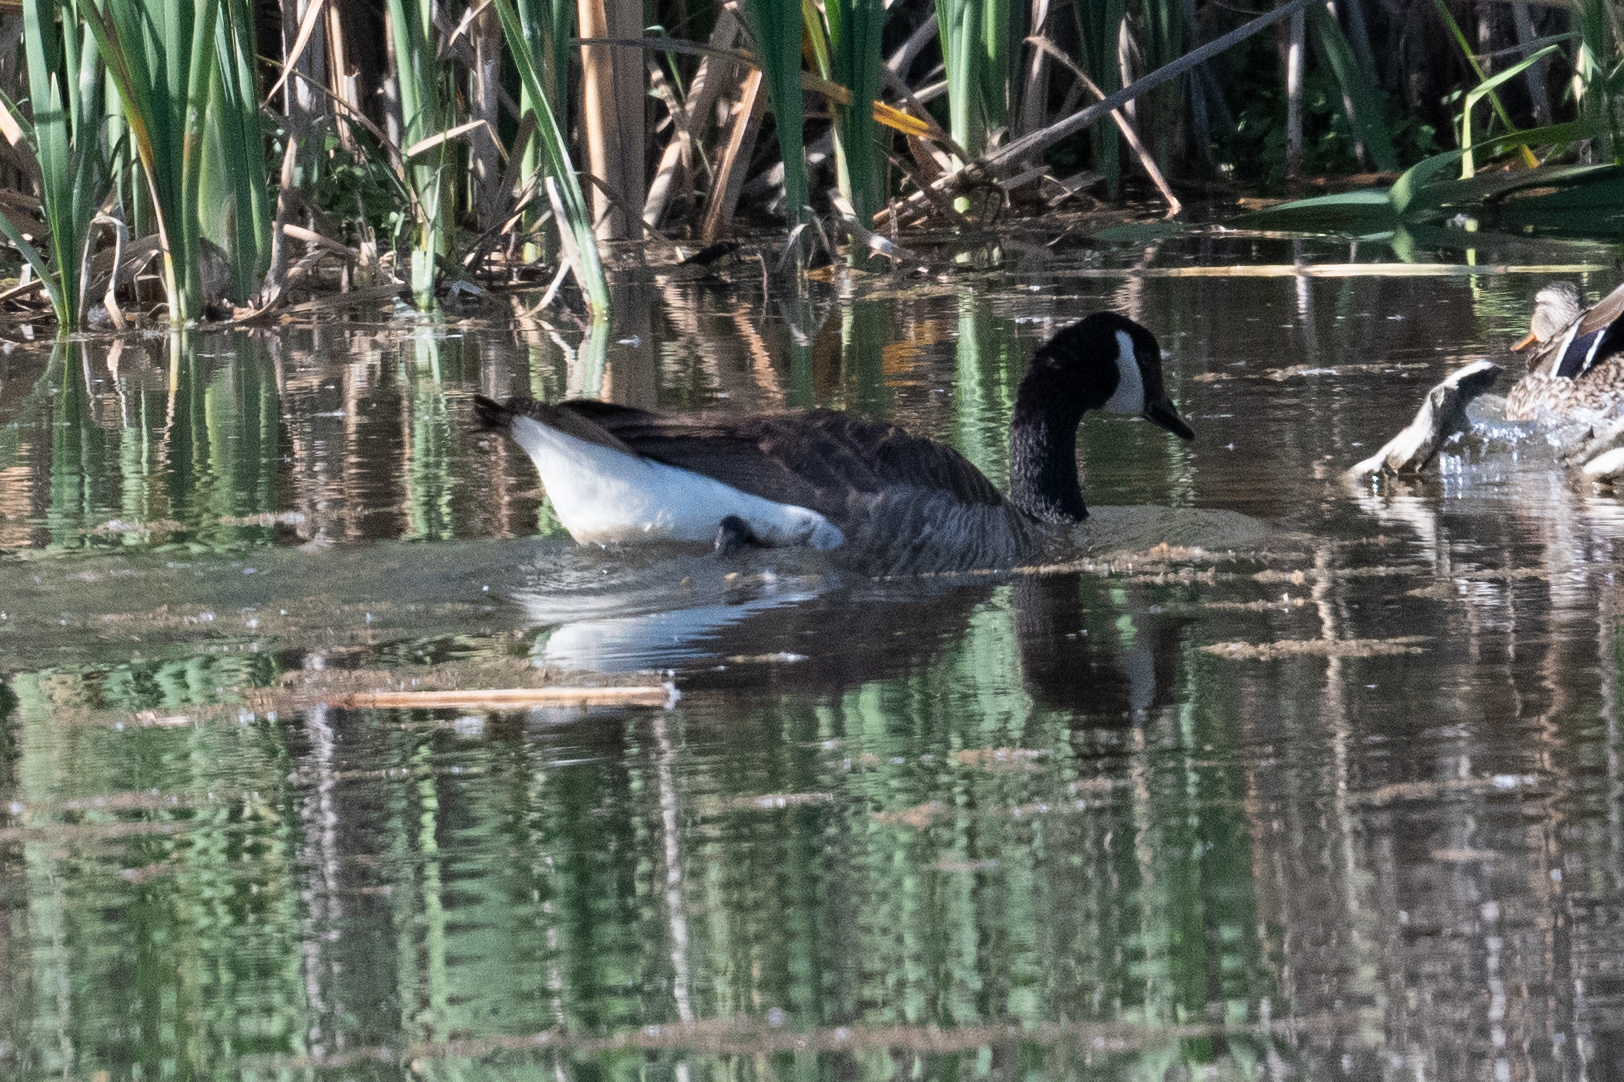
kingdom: Animalia
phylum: Chordata
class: Aves
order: Anseriformes
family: Anatidae
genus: Branta
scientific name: Branta canadensis
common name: Canada goose
